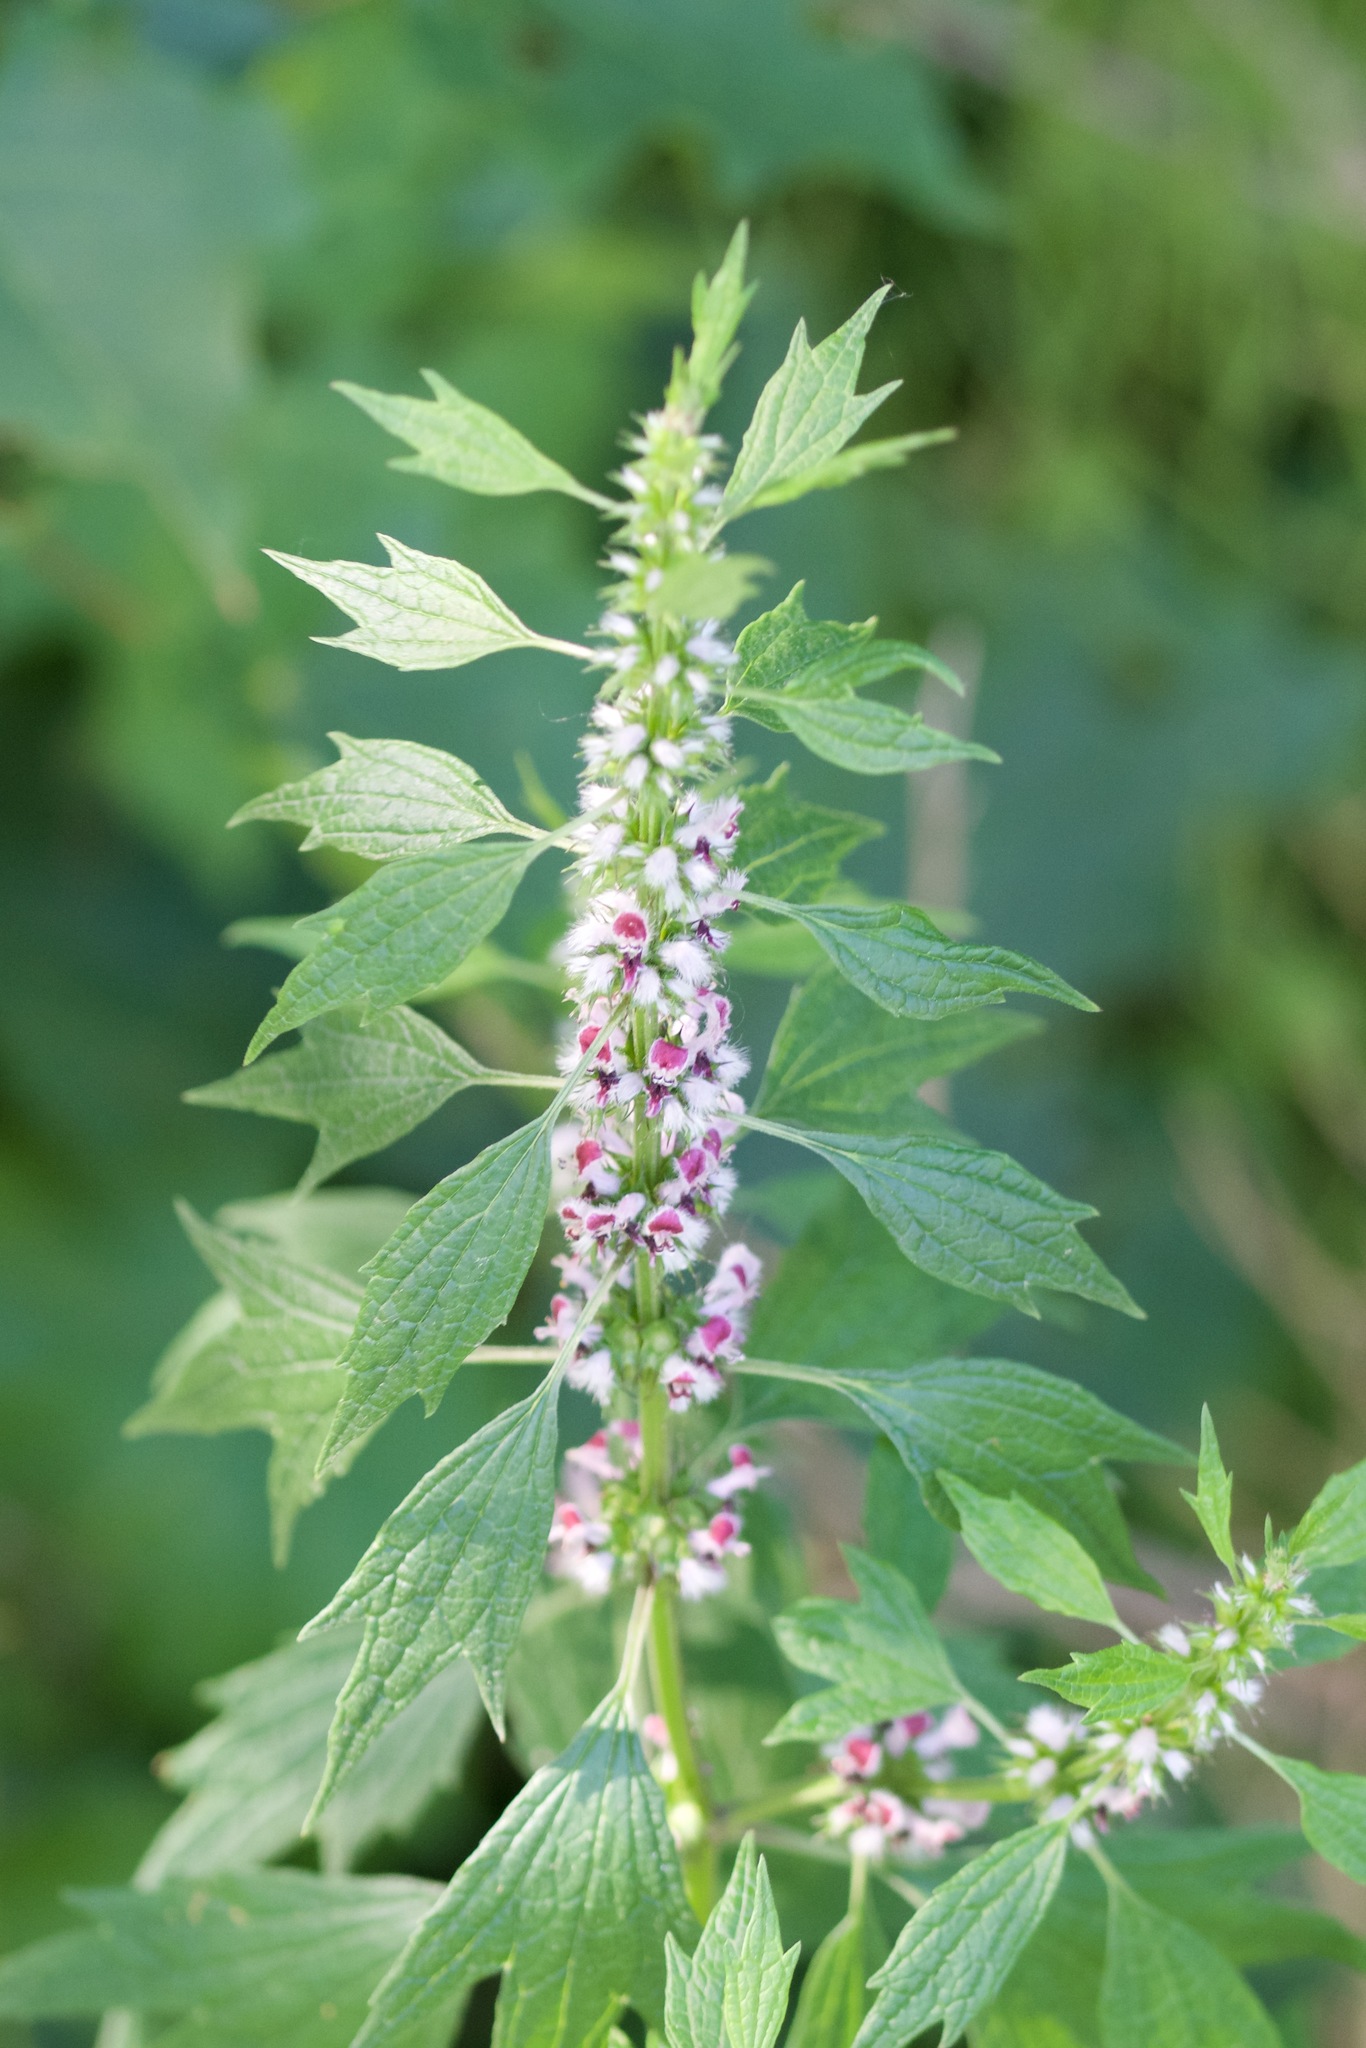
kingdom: Plantae
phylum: Tracheophyta
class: Magnoliopsida
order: Lamiales
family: Lamiaceae
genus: Leonurus
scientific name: Leonurus cardiaca
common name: Motherwort
